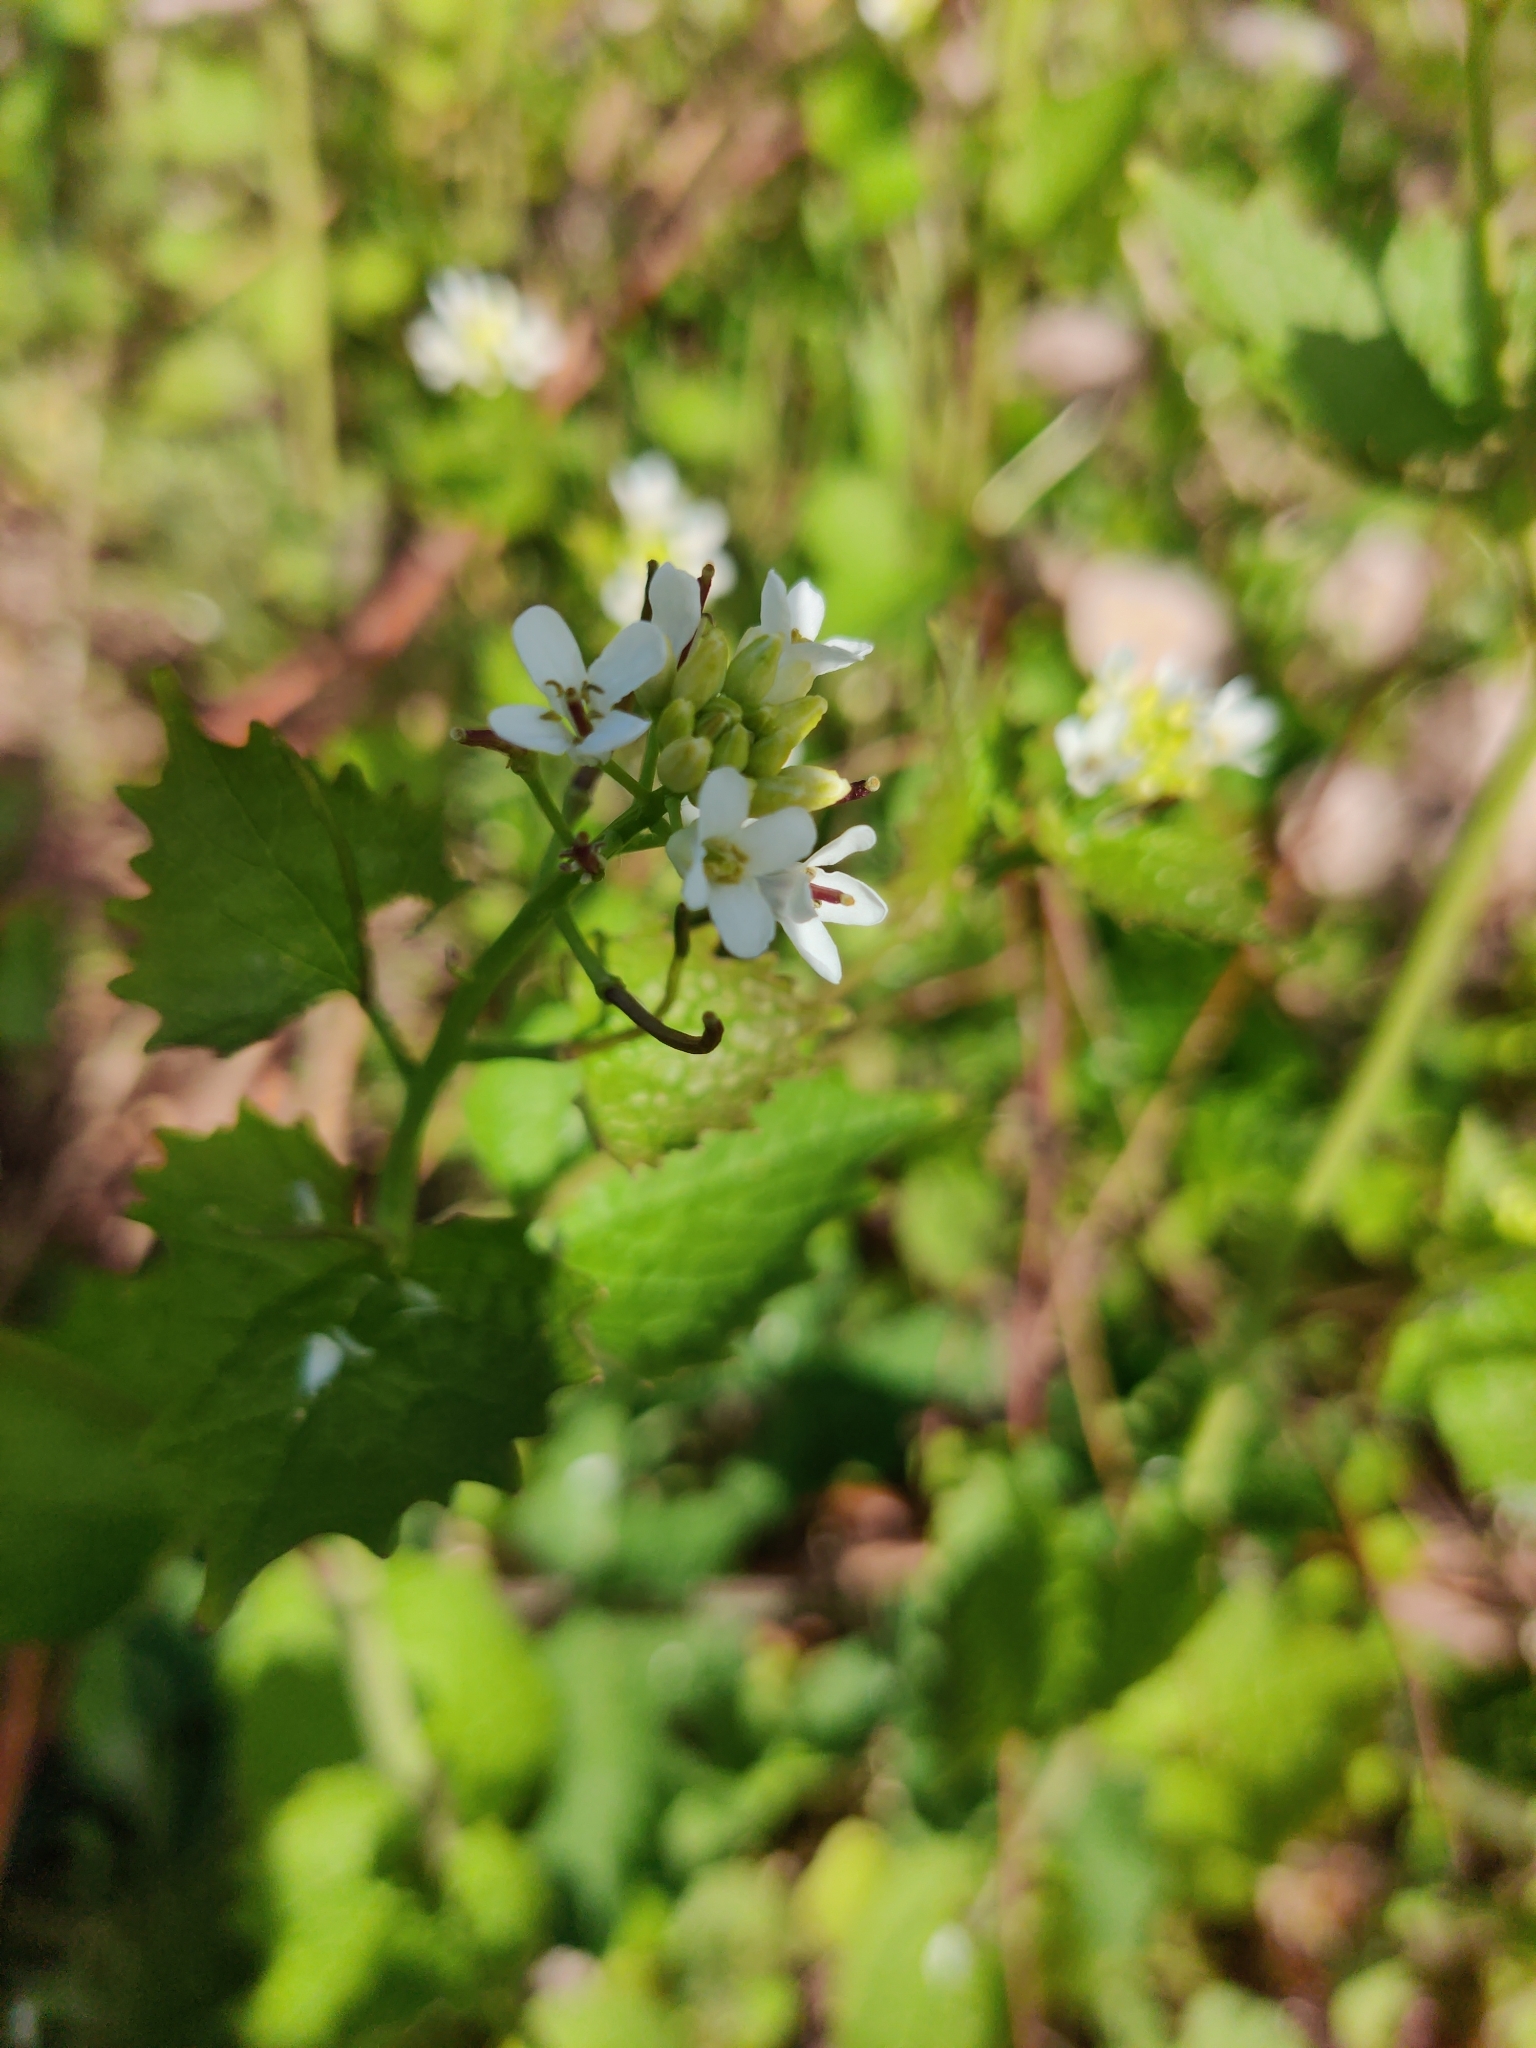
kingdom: Plantae
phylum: Tracheophyta
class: Magnoliopsida
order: Brassicales
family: Brassicaceae
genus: Alliaria
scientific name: Alliaria petiolata
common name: Garlic mustard
